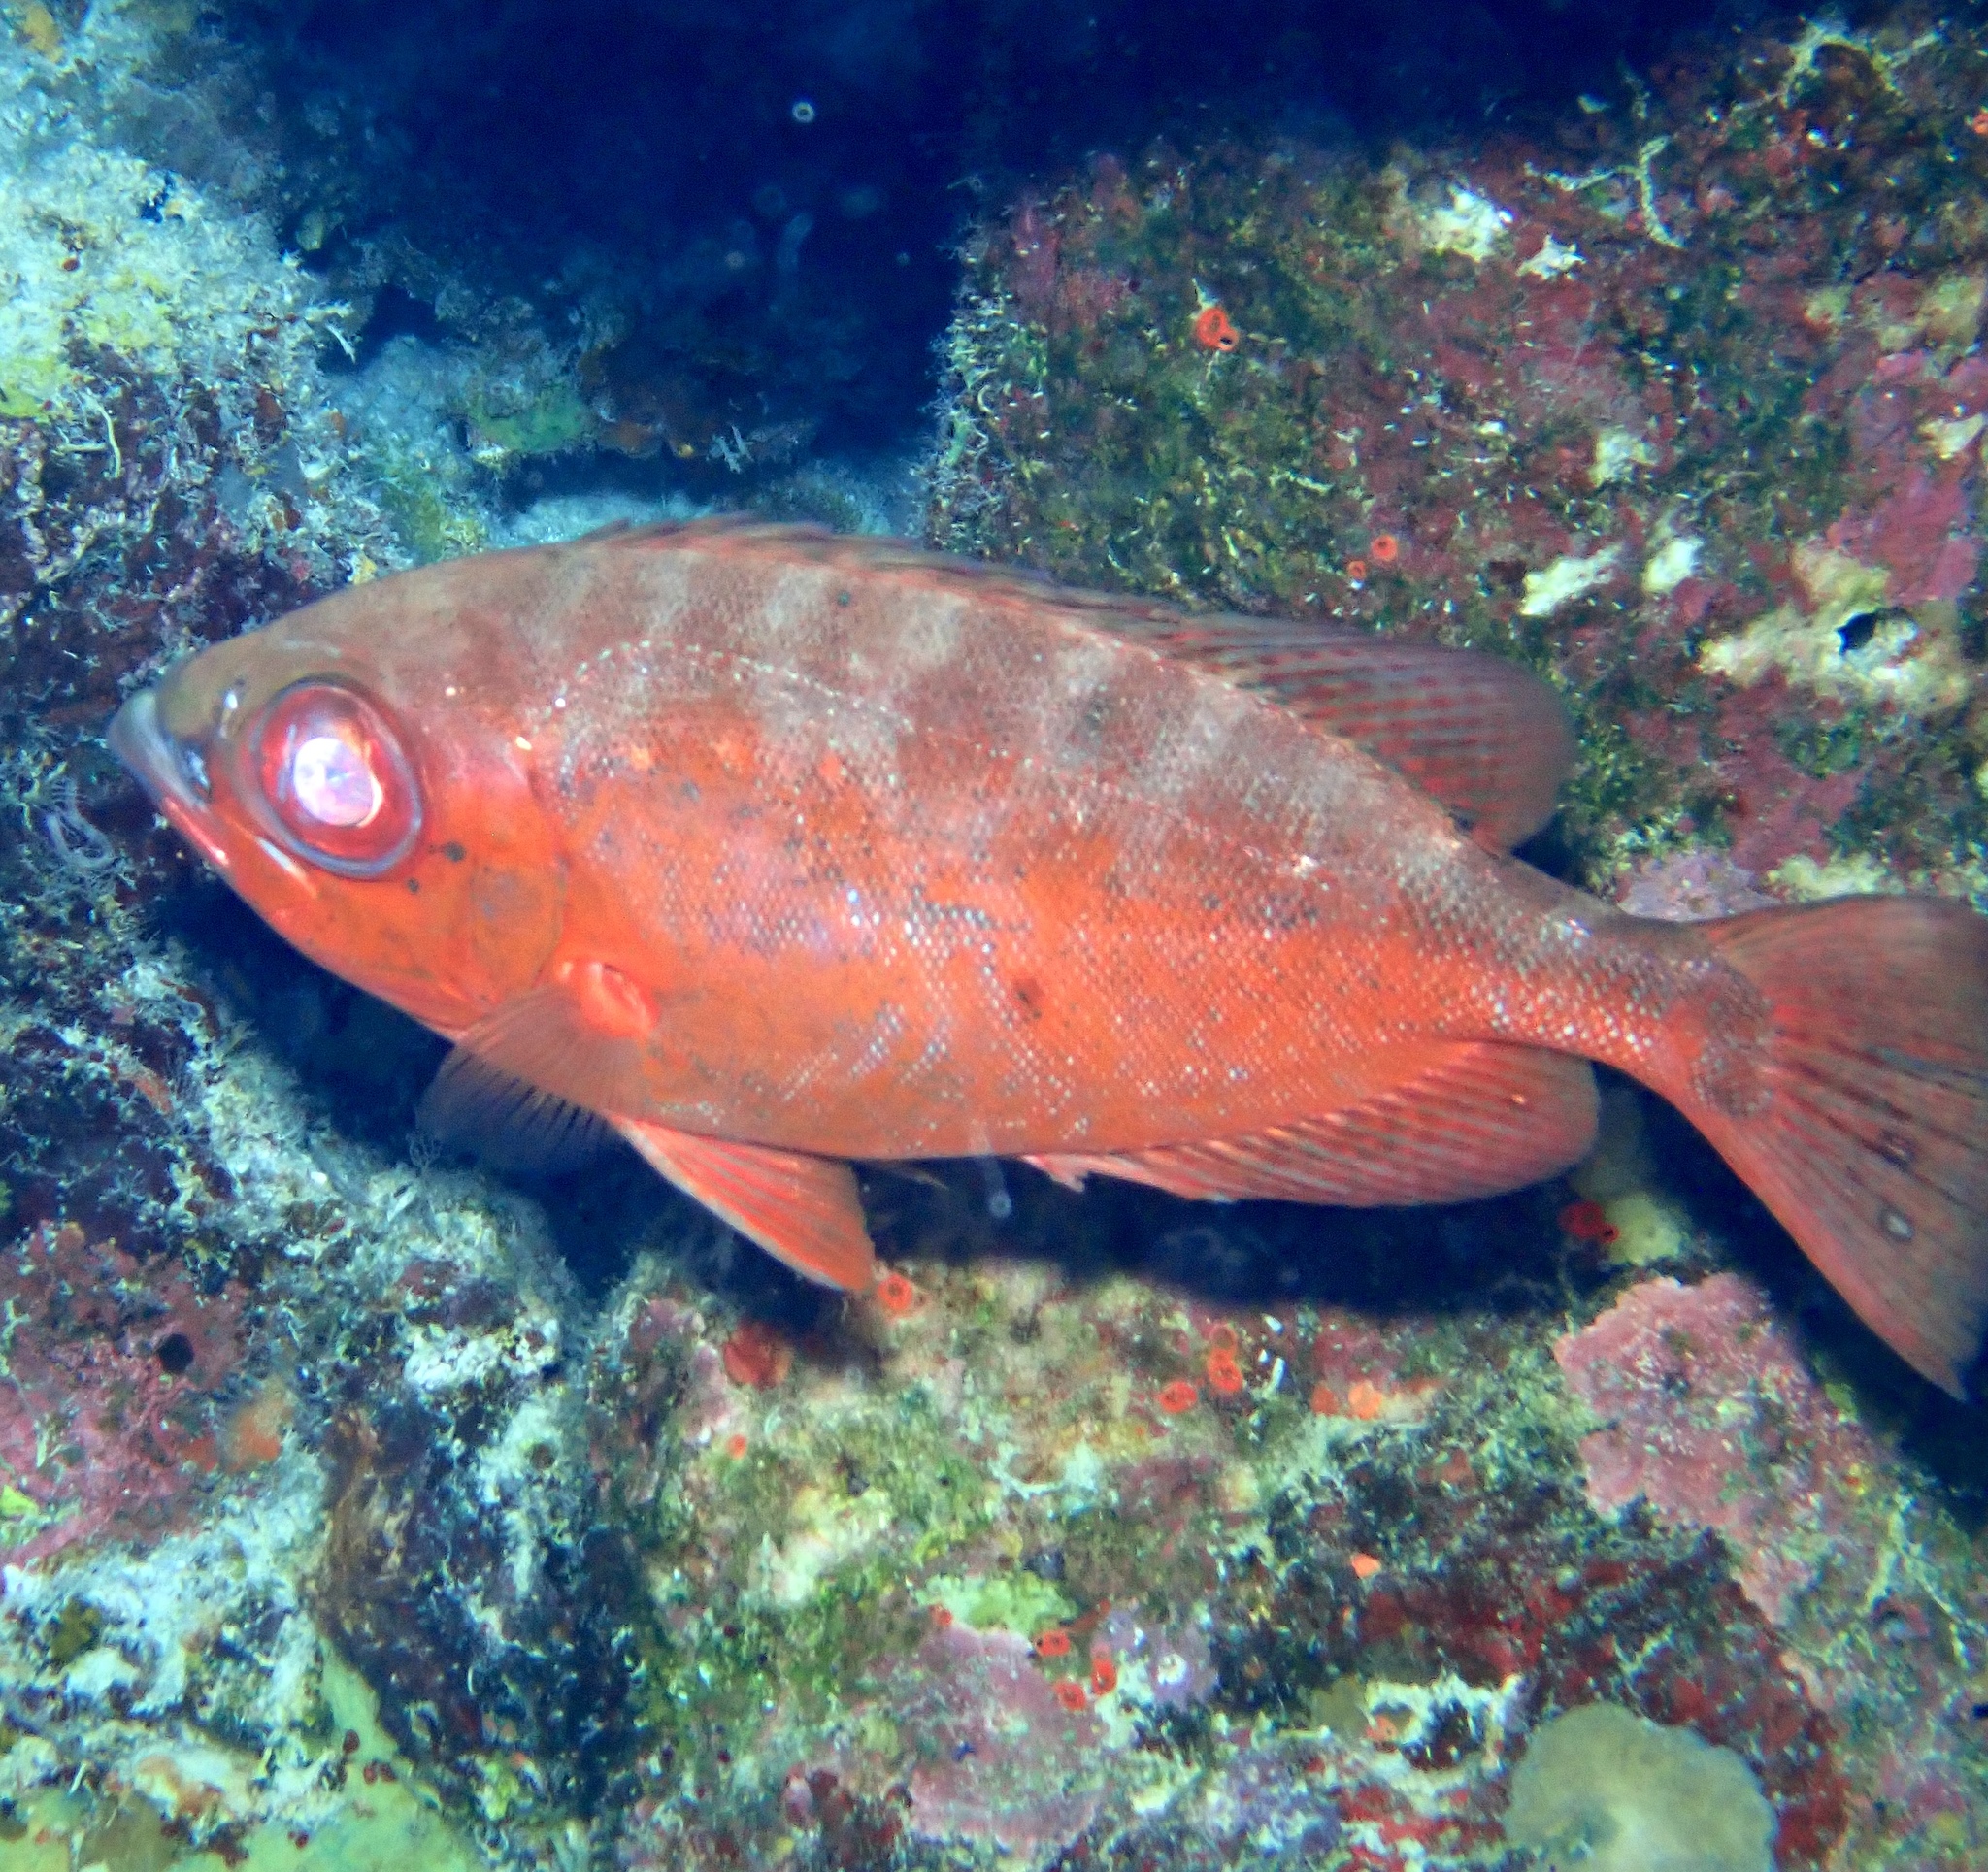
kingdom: Animalia
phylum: Chordata
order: Perciformes
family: Priacanthidae
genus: Heteropriacanthus
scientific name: Heteropriacanthus cruentatus
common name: Glasseye
